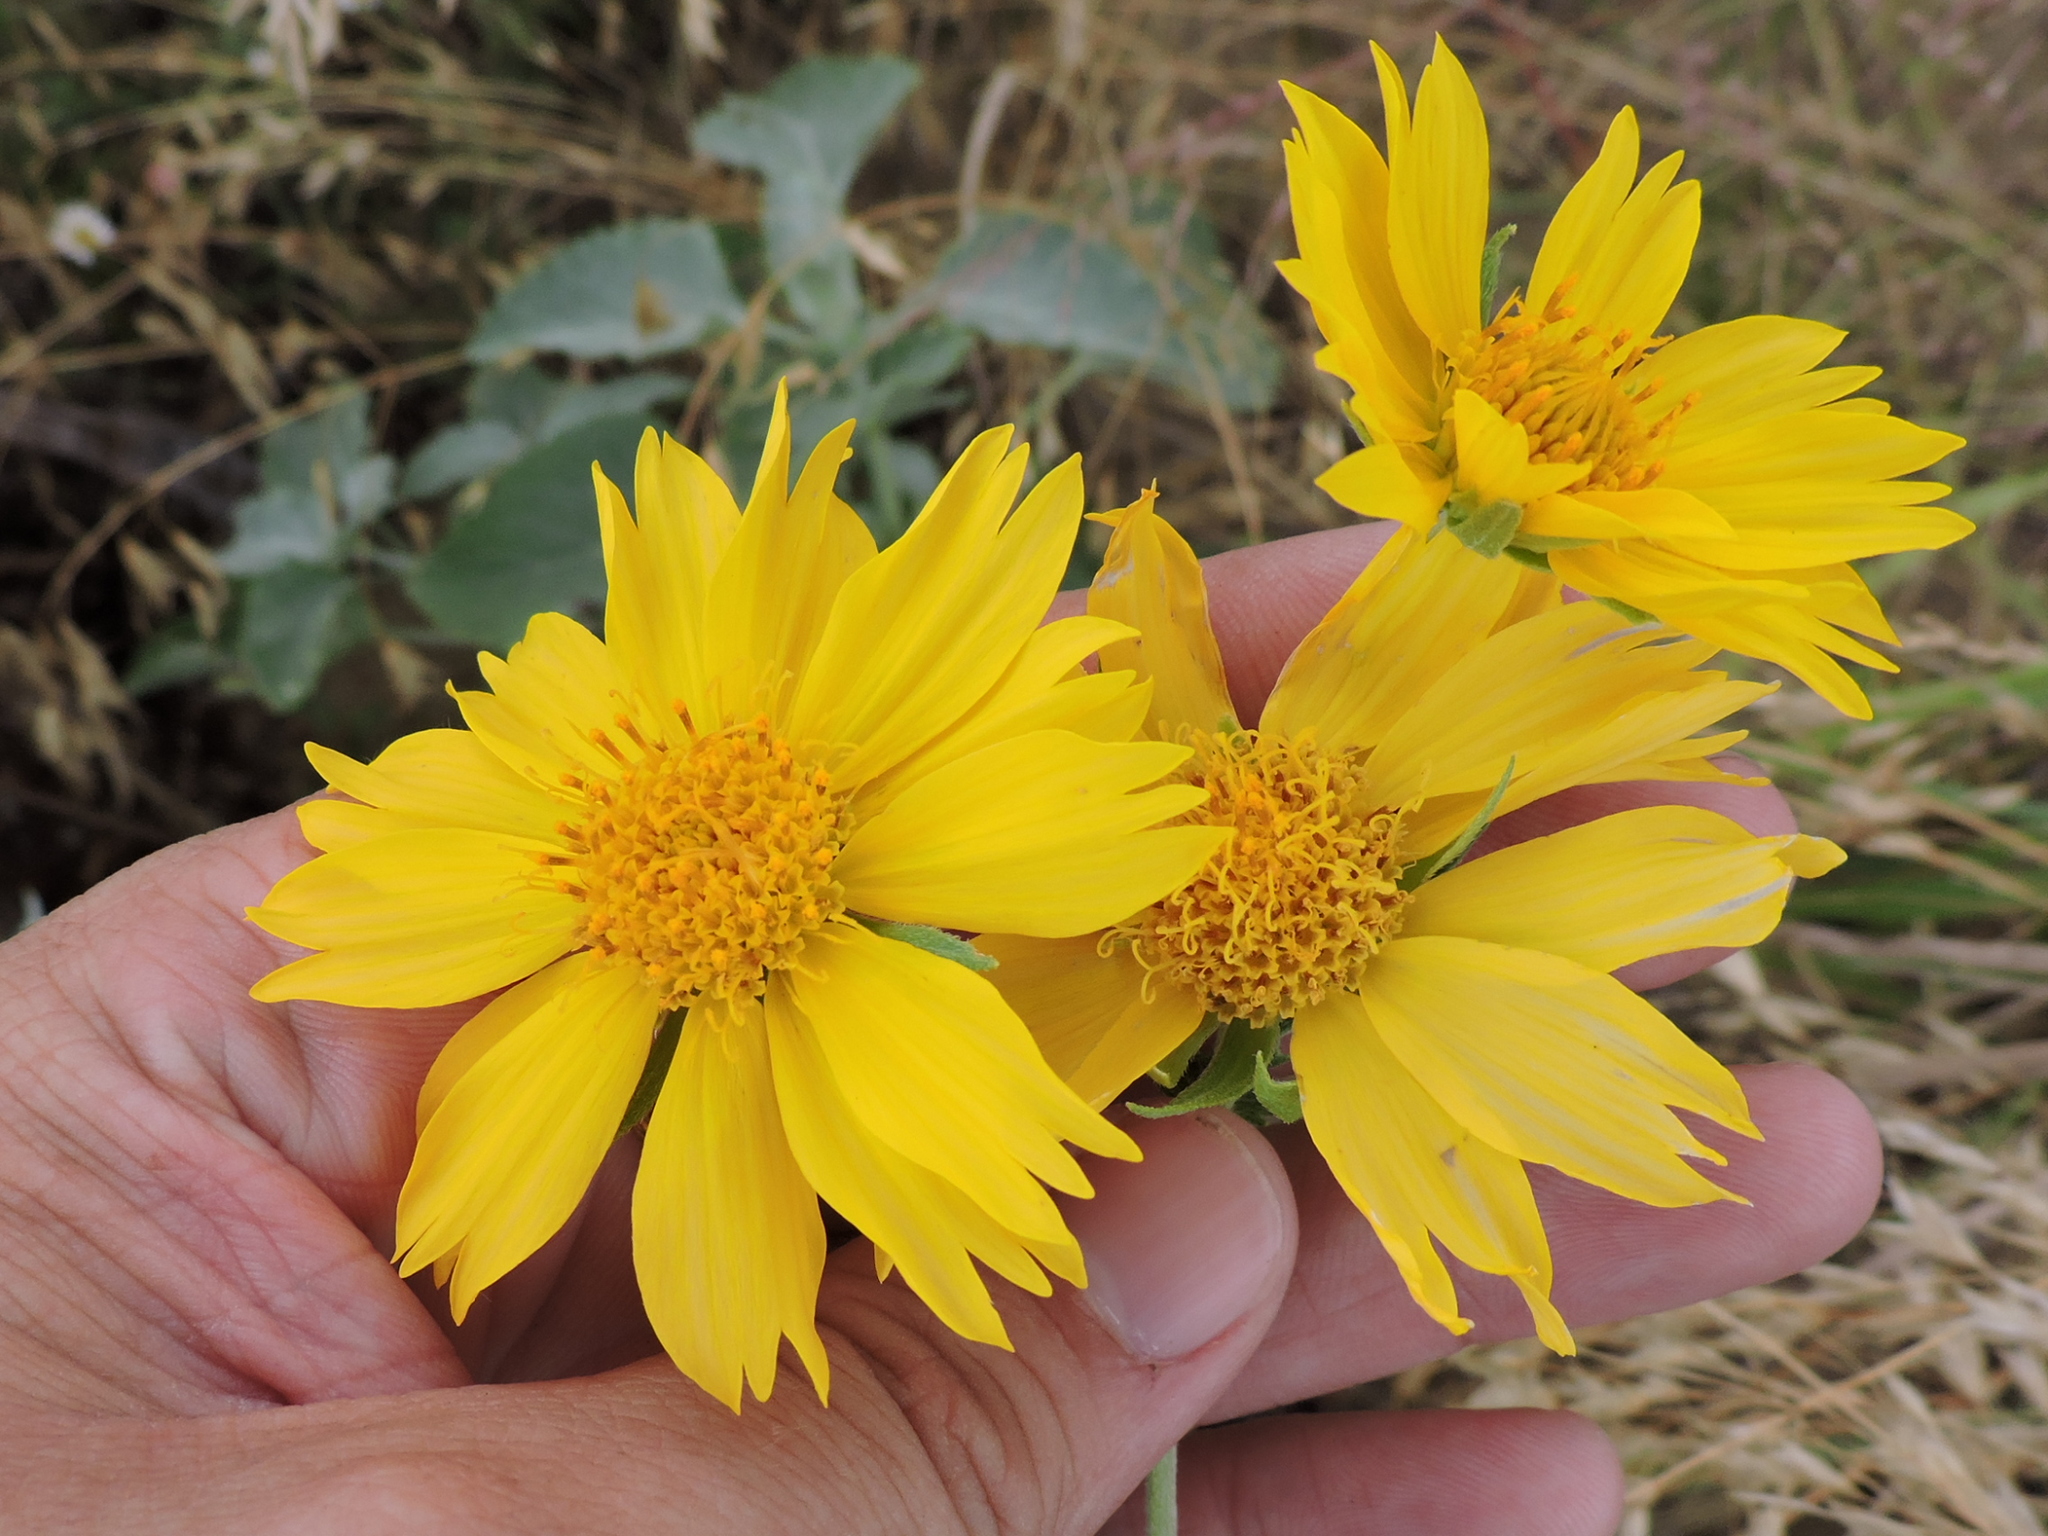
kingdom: Plantae
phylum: Tracheophyta
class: Magnoliopsida
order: Asterales
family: Asteraceae
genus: Verbesina
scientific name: Verbesina encelioides
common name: Golden crownbeard
